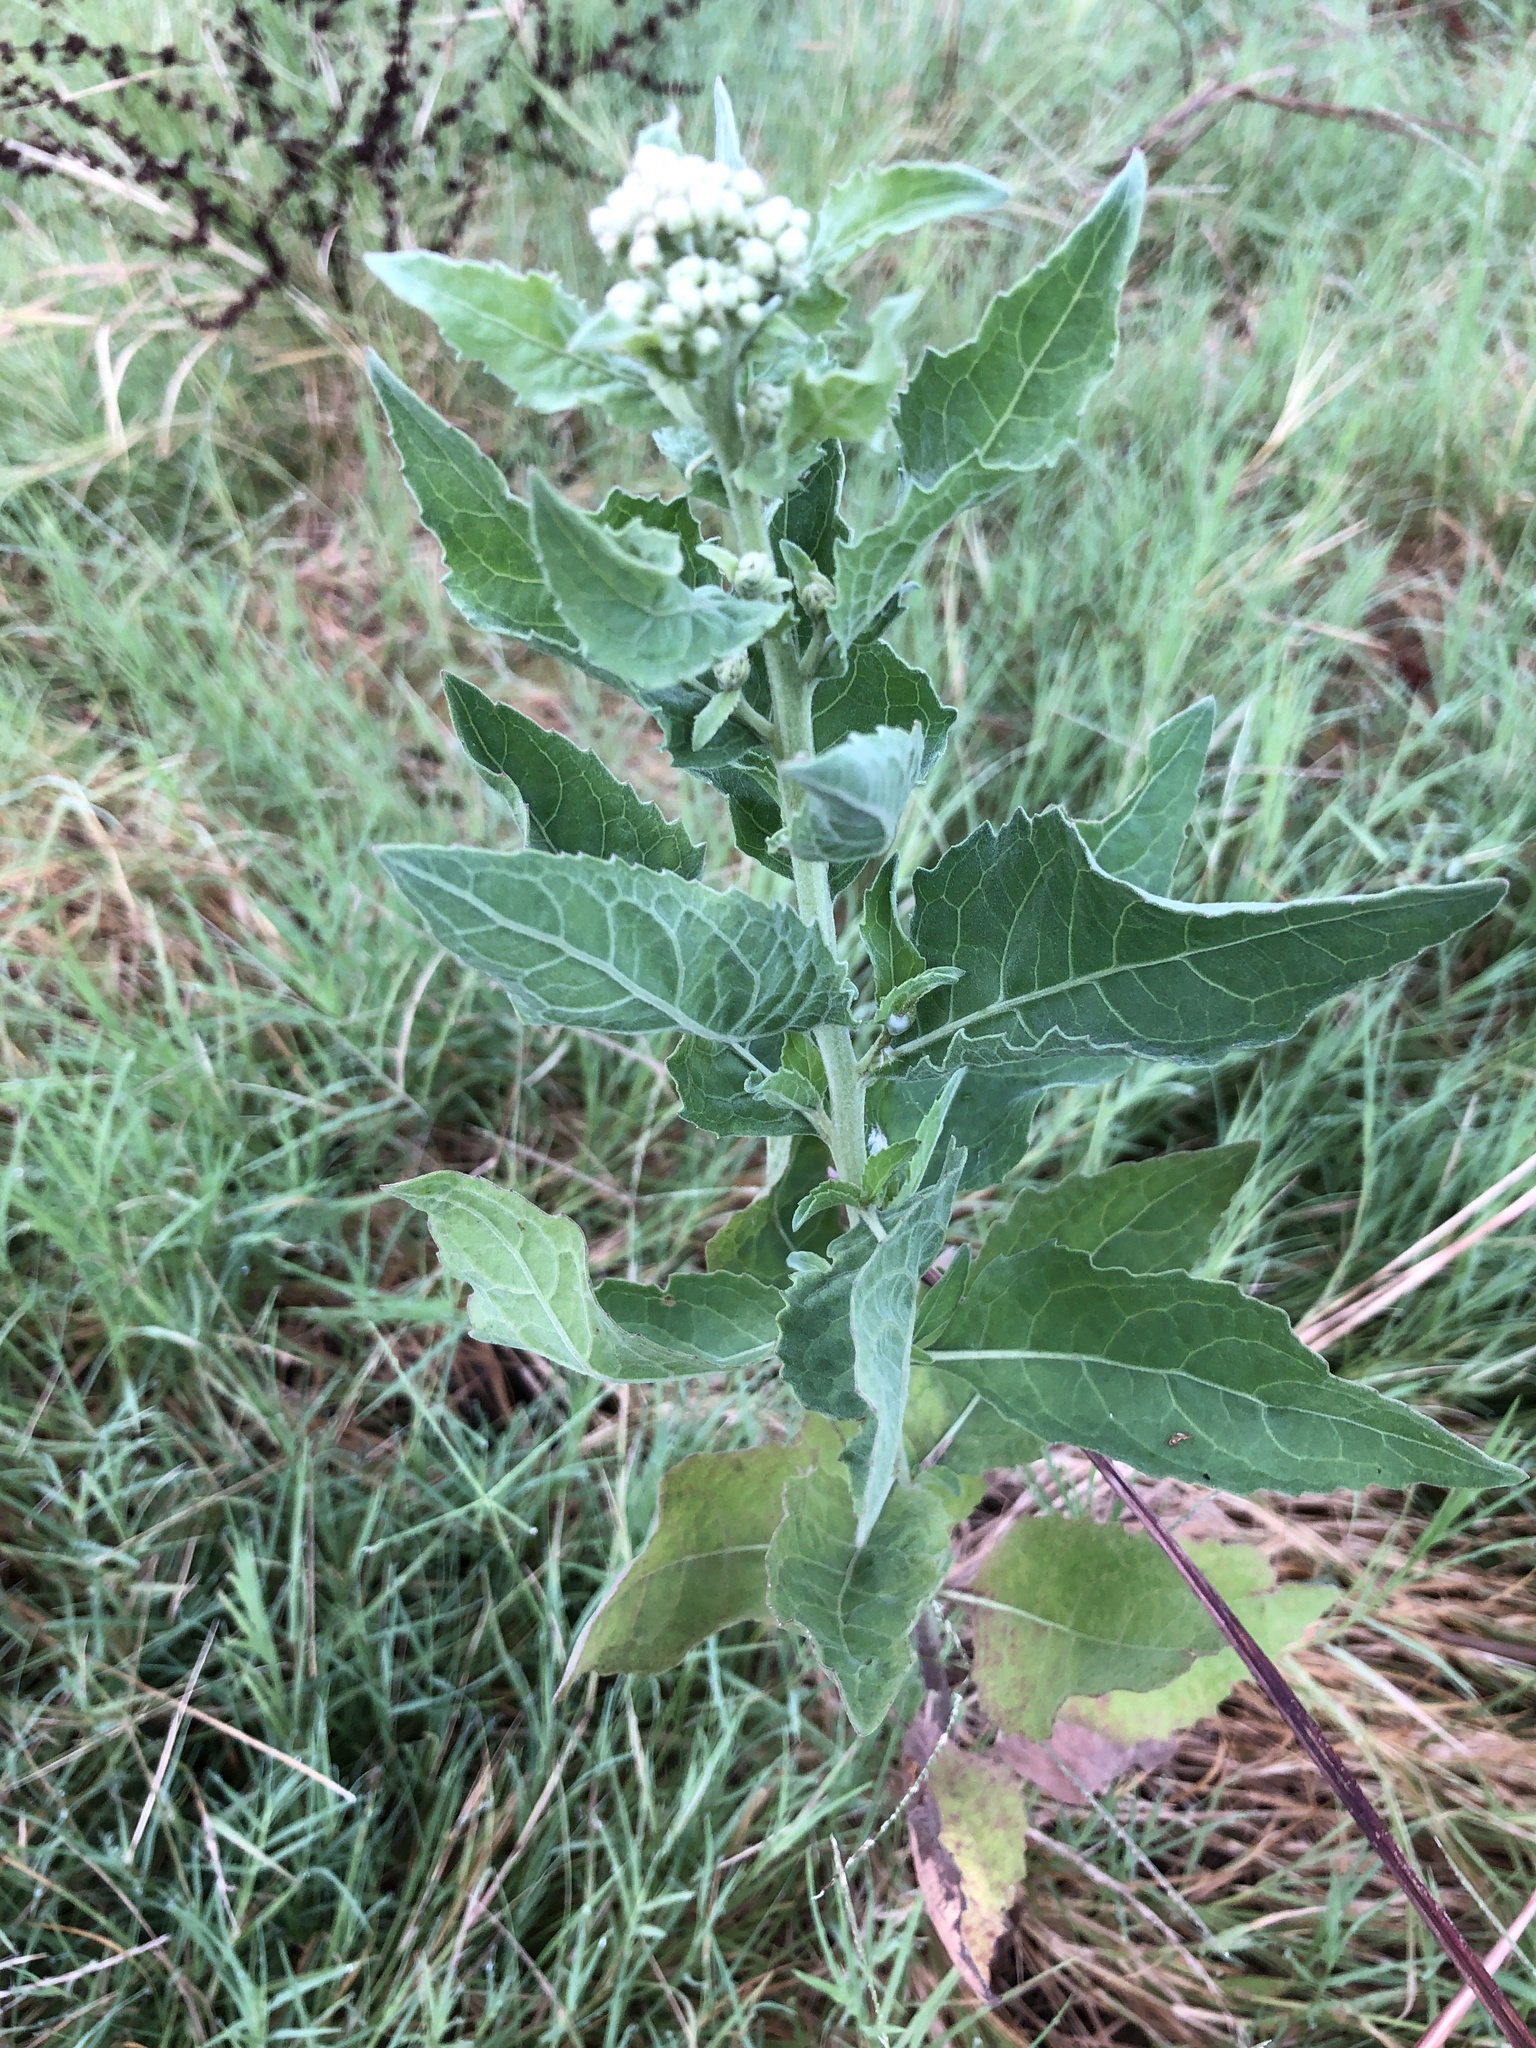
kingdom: Plantae
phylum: Tracheophyta
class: Magnoliopsida
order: Asterales
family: Asteraceae
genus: Pluchea
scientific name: Pluchea odorata
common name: Saltmarsh fleabane
